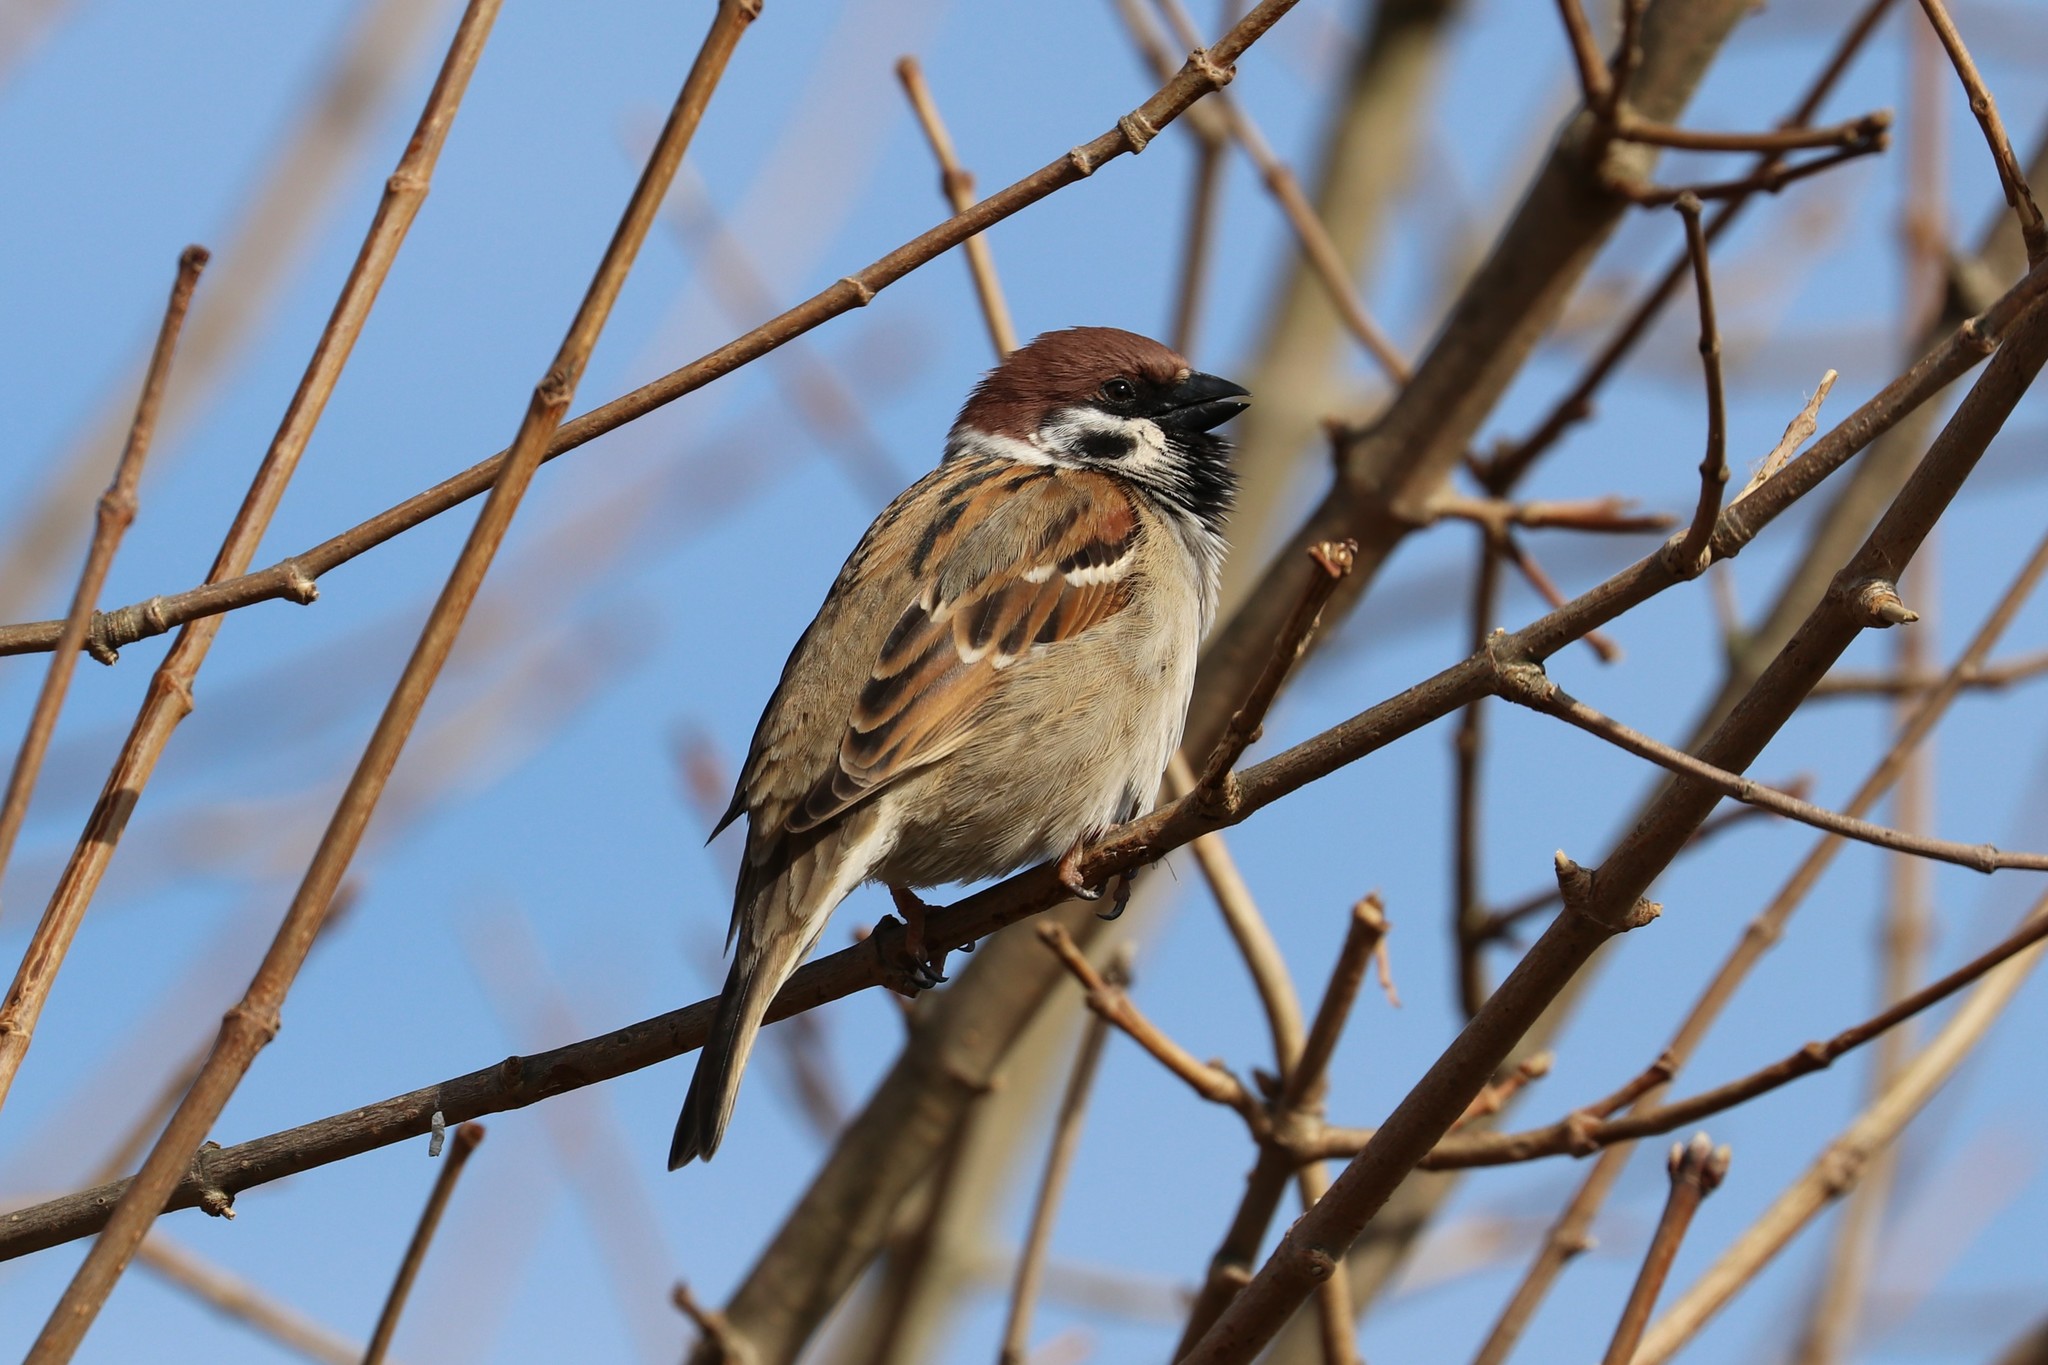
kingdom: Animalia
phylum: Chordata
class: Aves
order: Passeriformes
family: Passeridae
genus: Passer
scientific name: Passer montanus
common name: Eurasian tree sparrow
